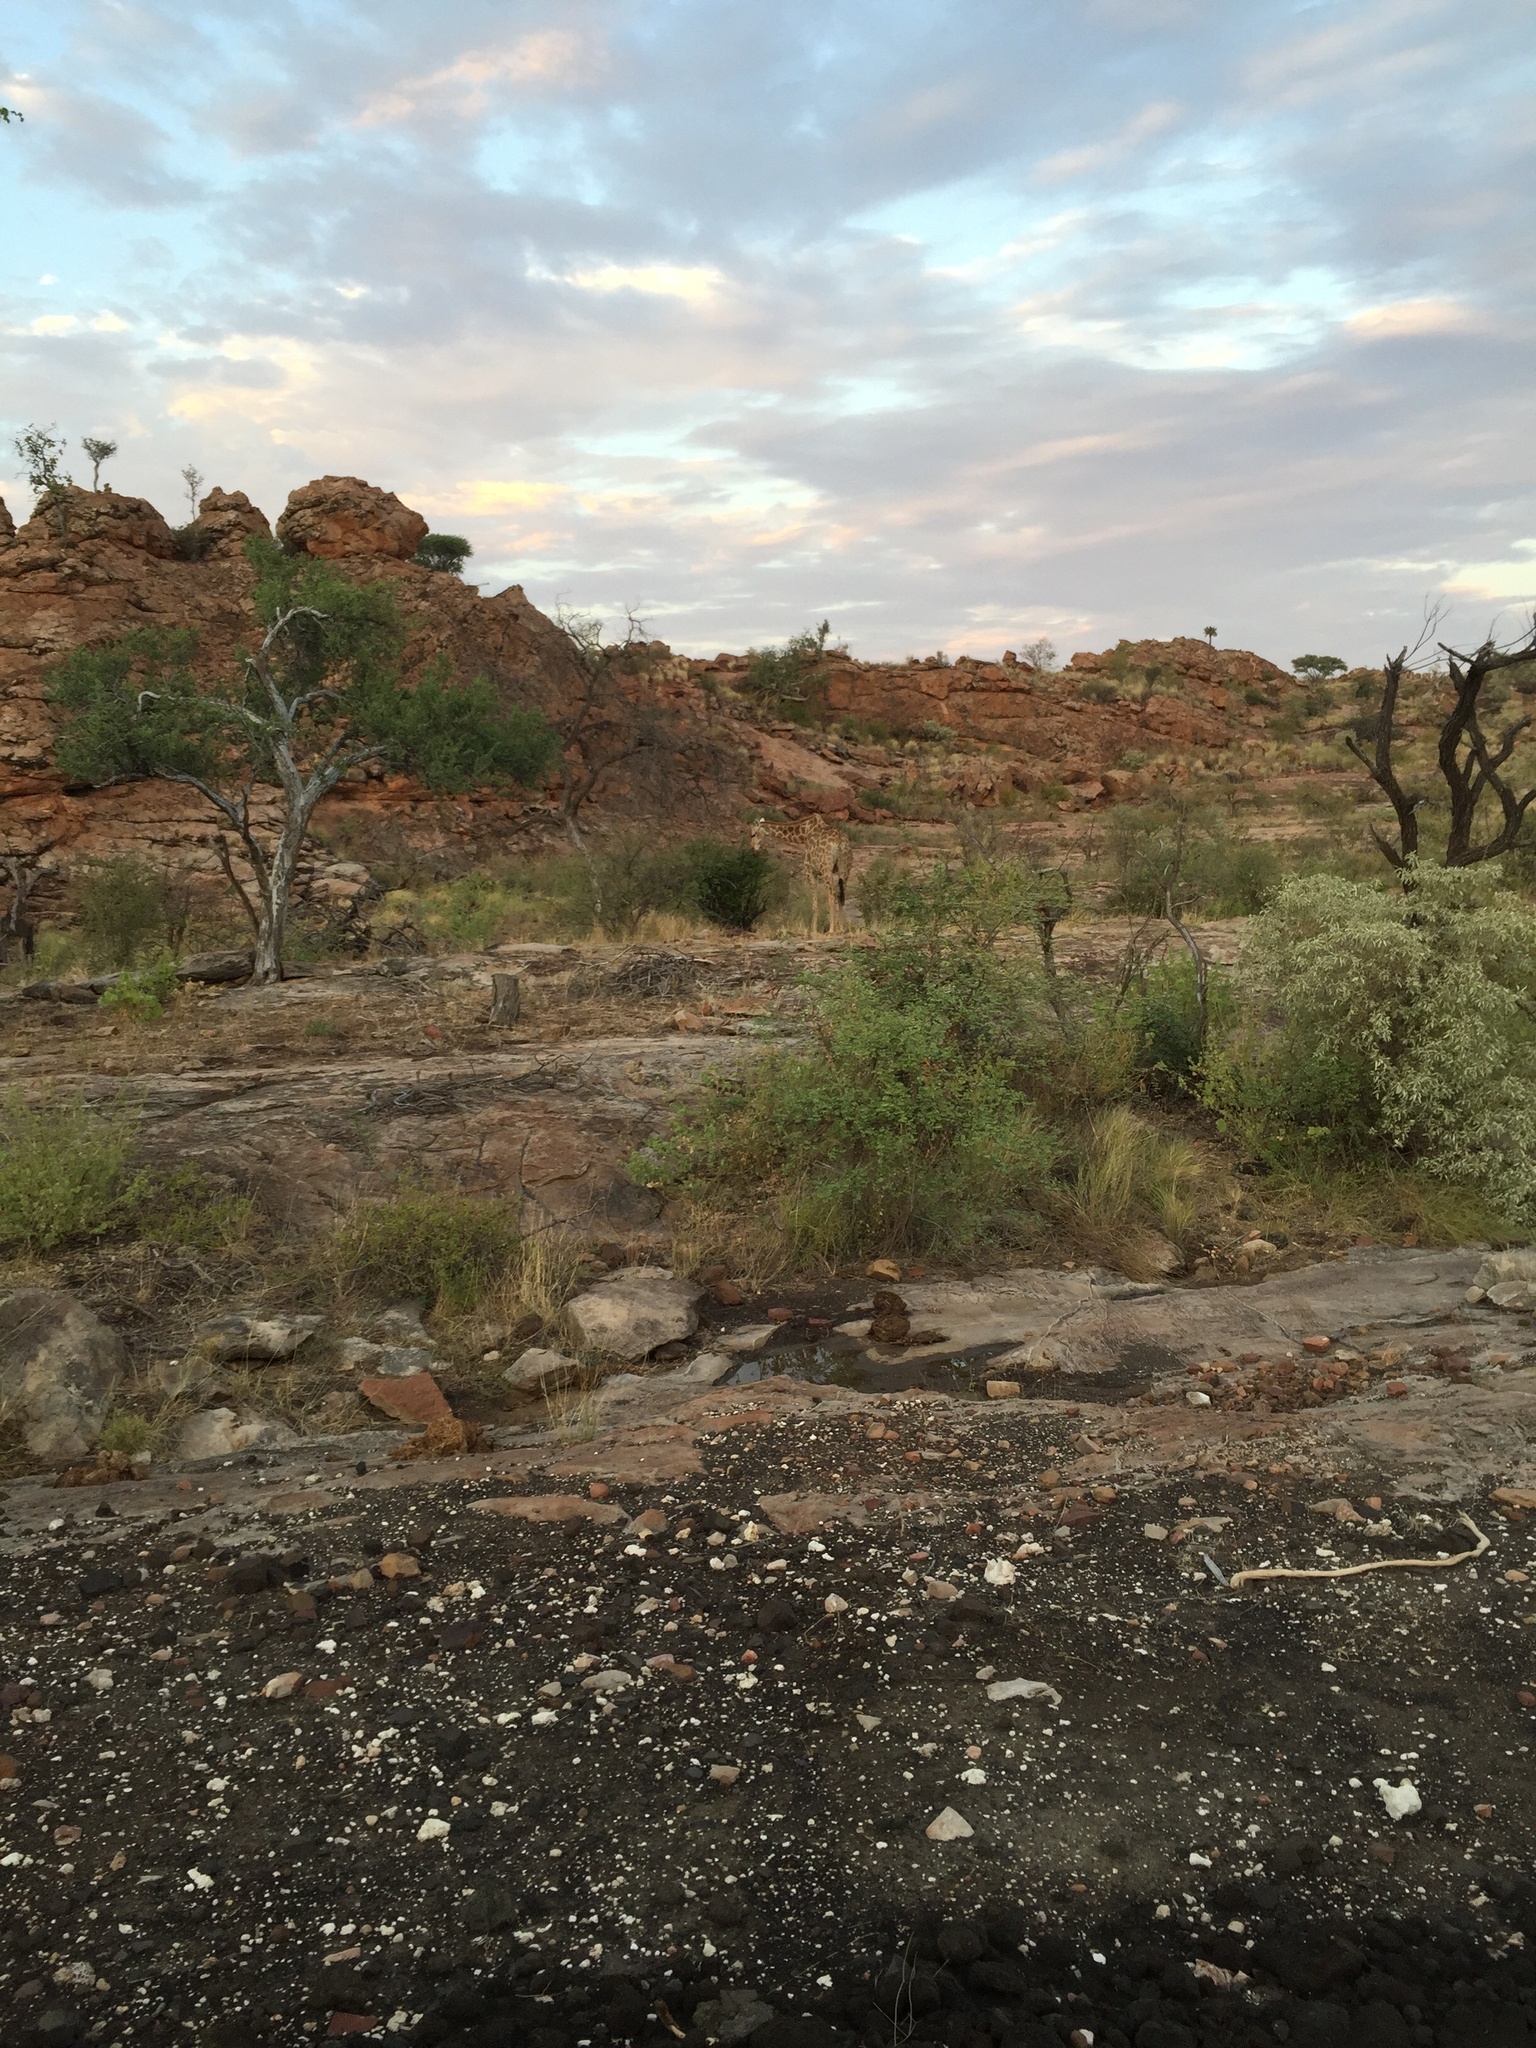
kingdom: Animalia
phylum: Chordata
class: Mammalia
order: Artiodactyla
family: Giraffidae
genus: Giraffa
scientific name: Giraffa giraffa
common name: Southern giraffe
